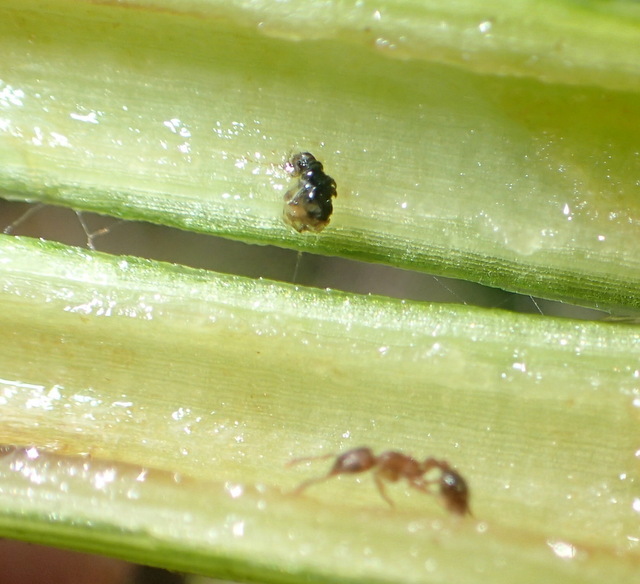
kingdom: Animalia
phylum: Arthropoda
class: Insecta
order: Hymenoptera
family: Formicidae
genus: Tetramorium
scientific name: Tetramorium bicarinatum
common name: Guinea ant
